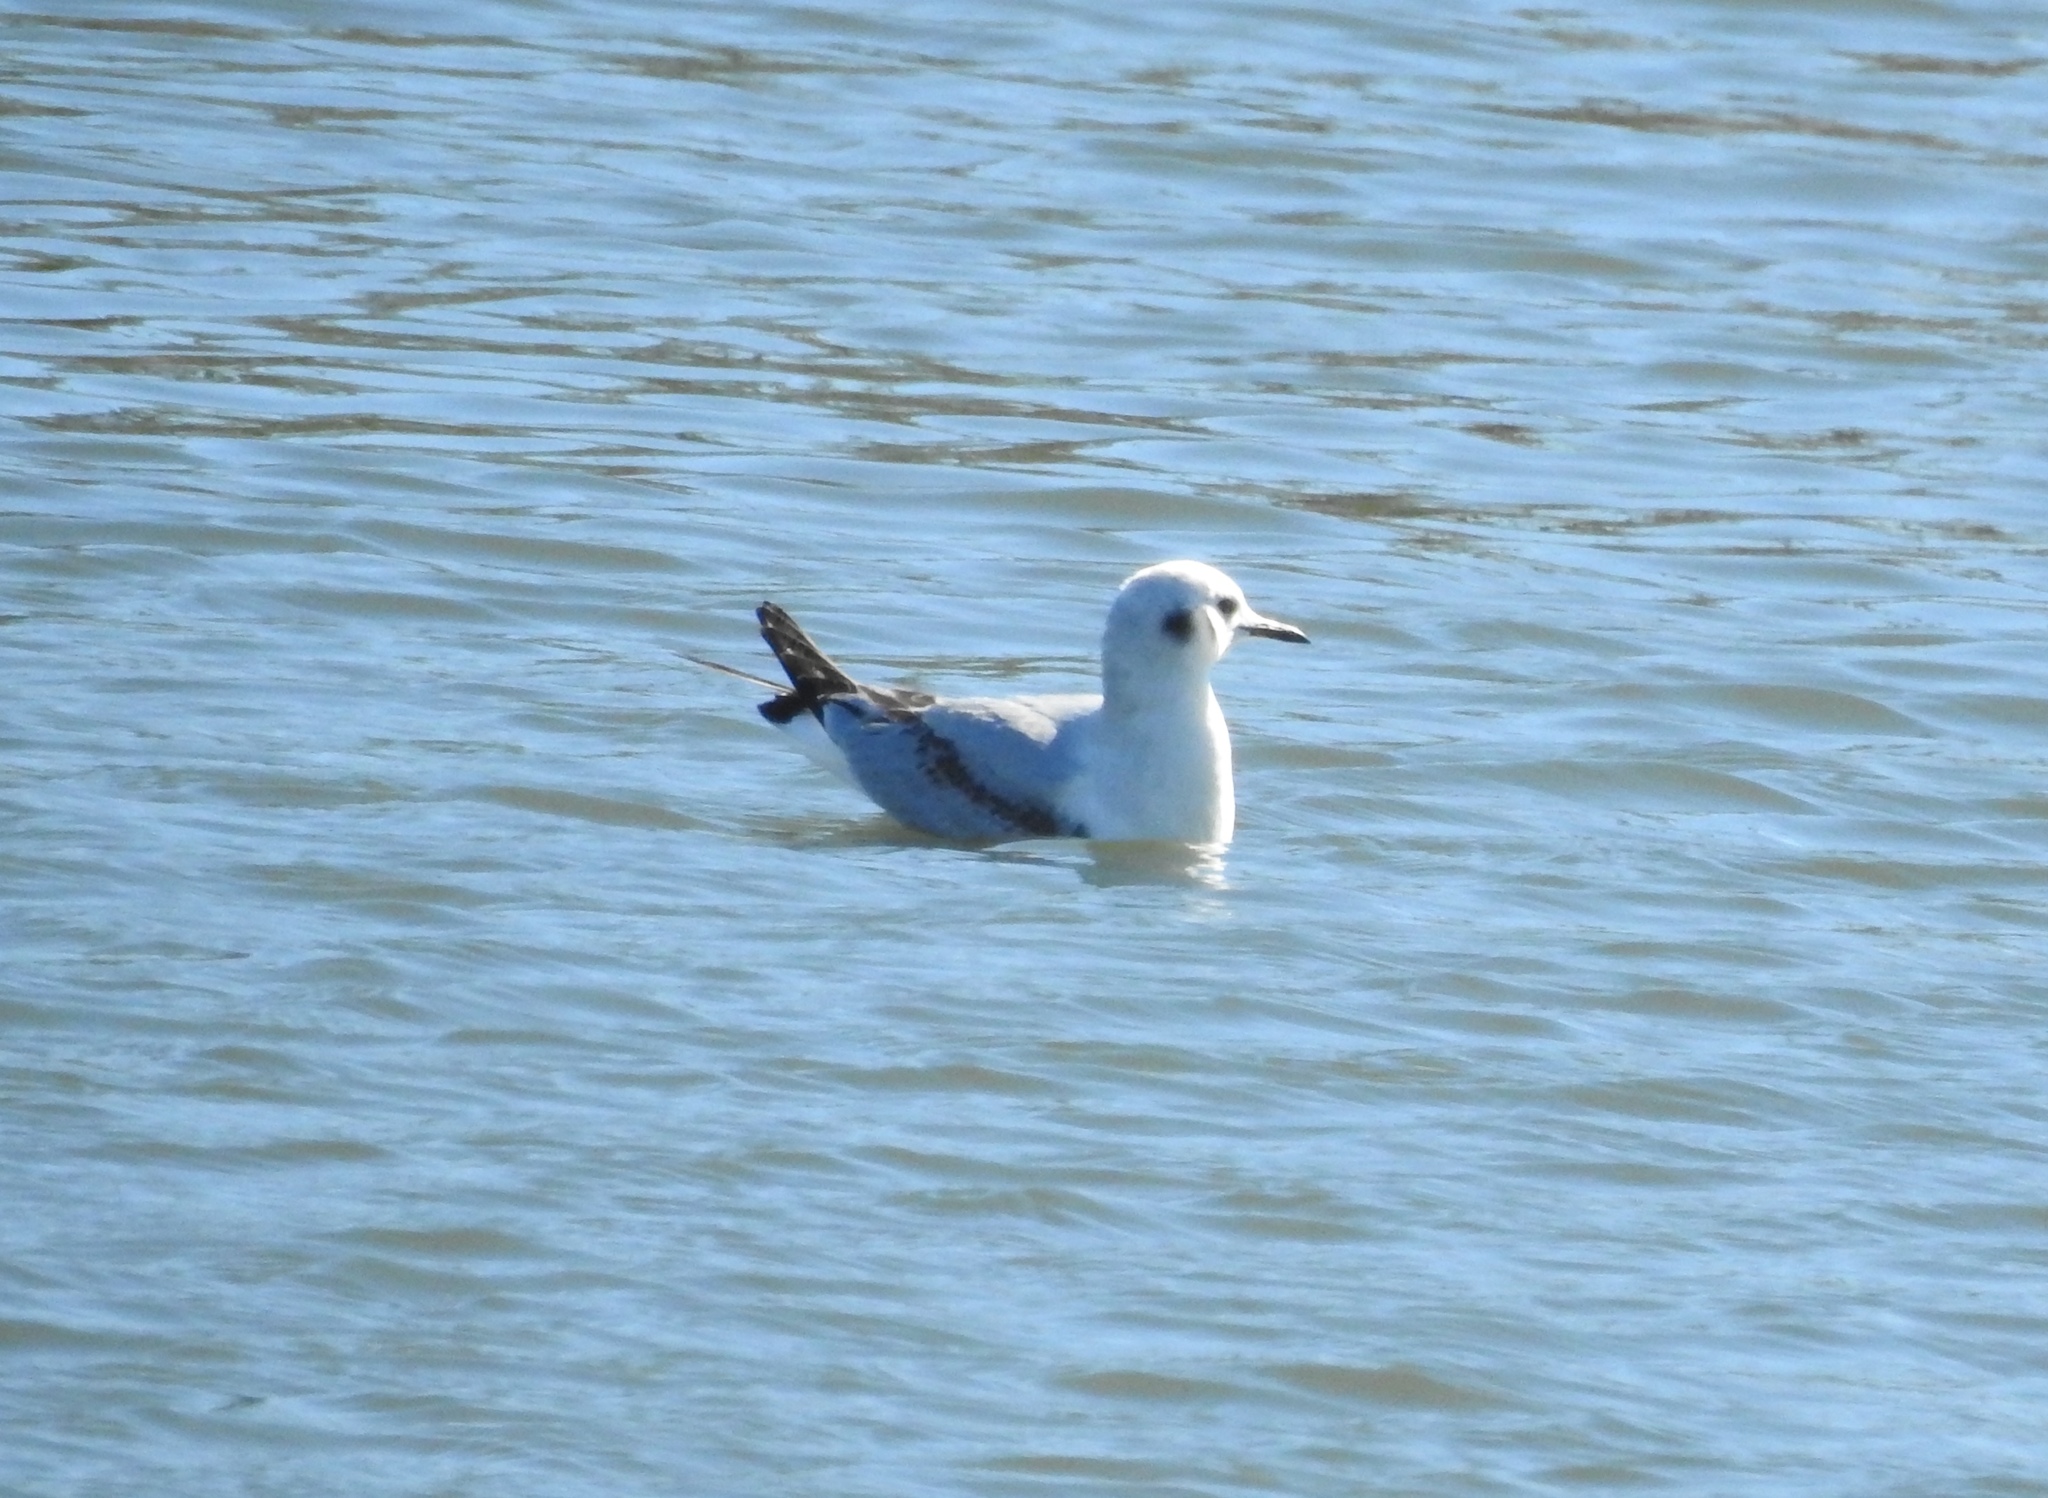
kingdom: Animalia
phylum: Chordata
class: Aves
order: Charadriiformes
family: Laridae
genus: Chroicocephalus
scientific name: Chroicocephalus philadelphia
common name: Bonaparte's gull
